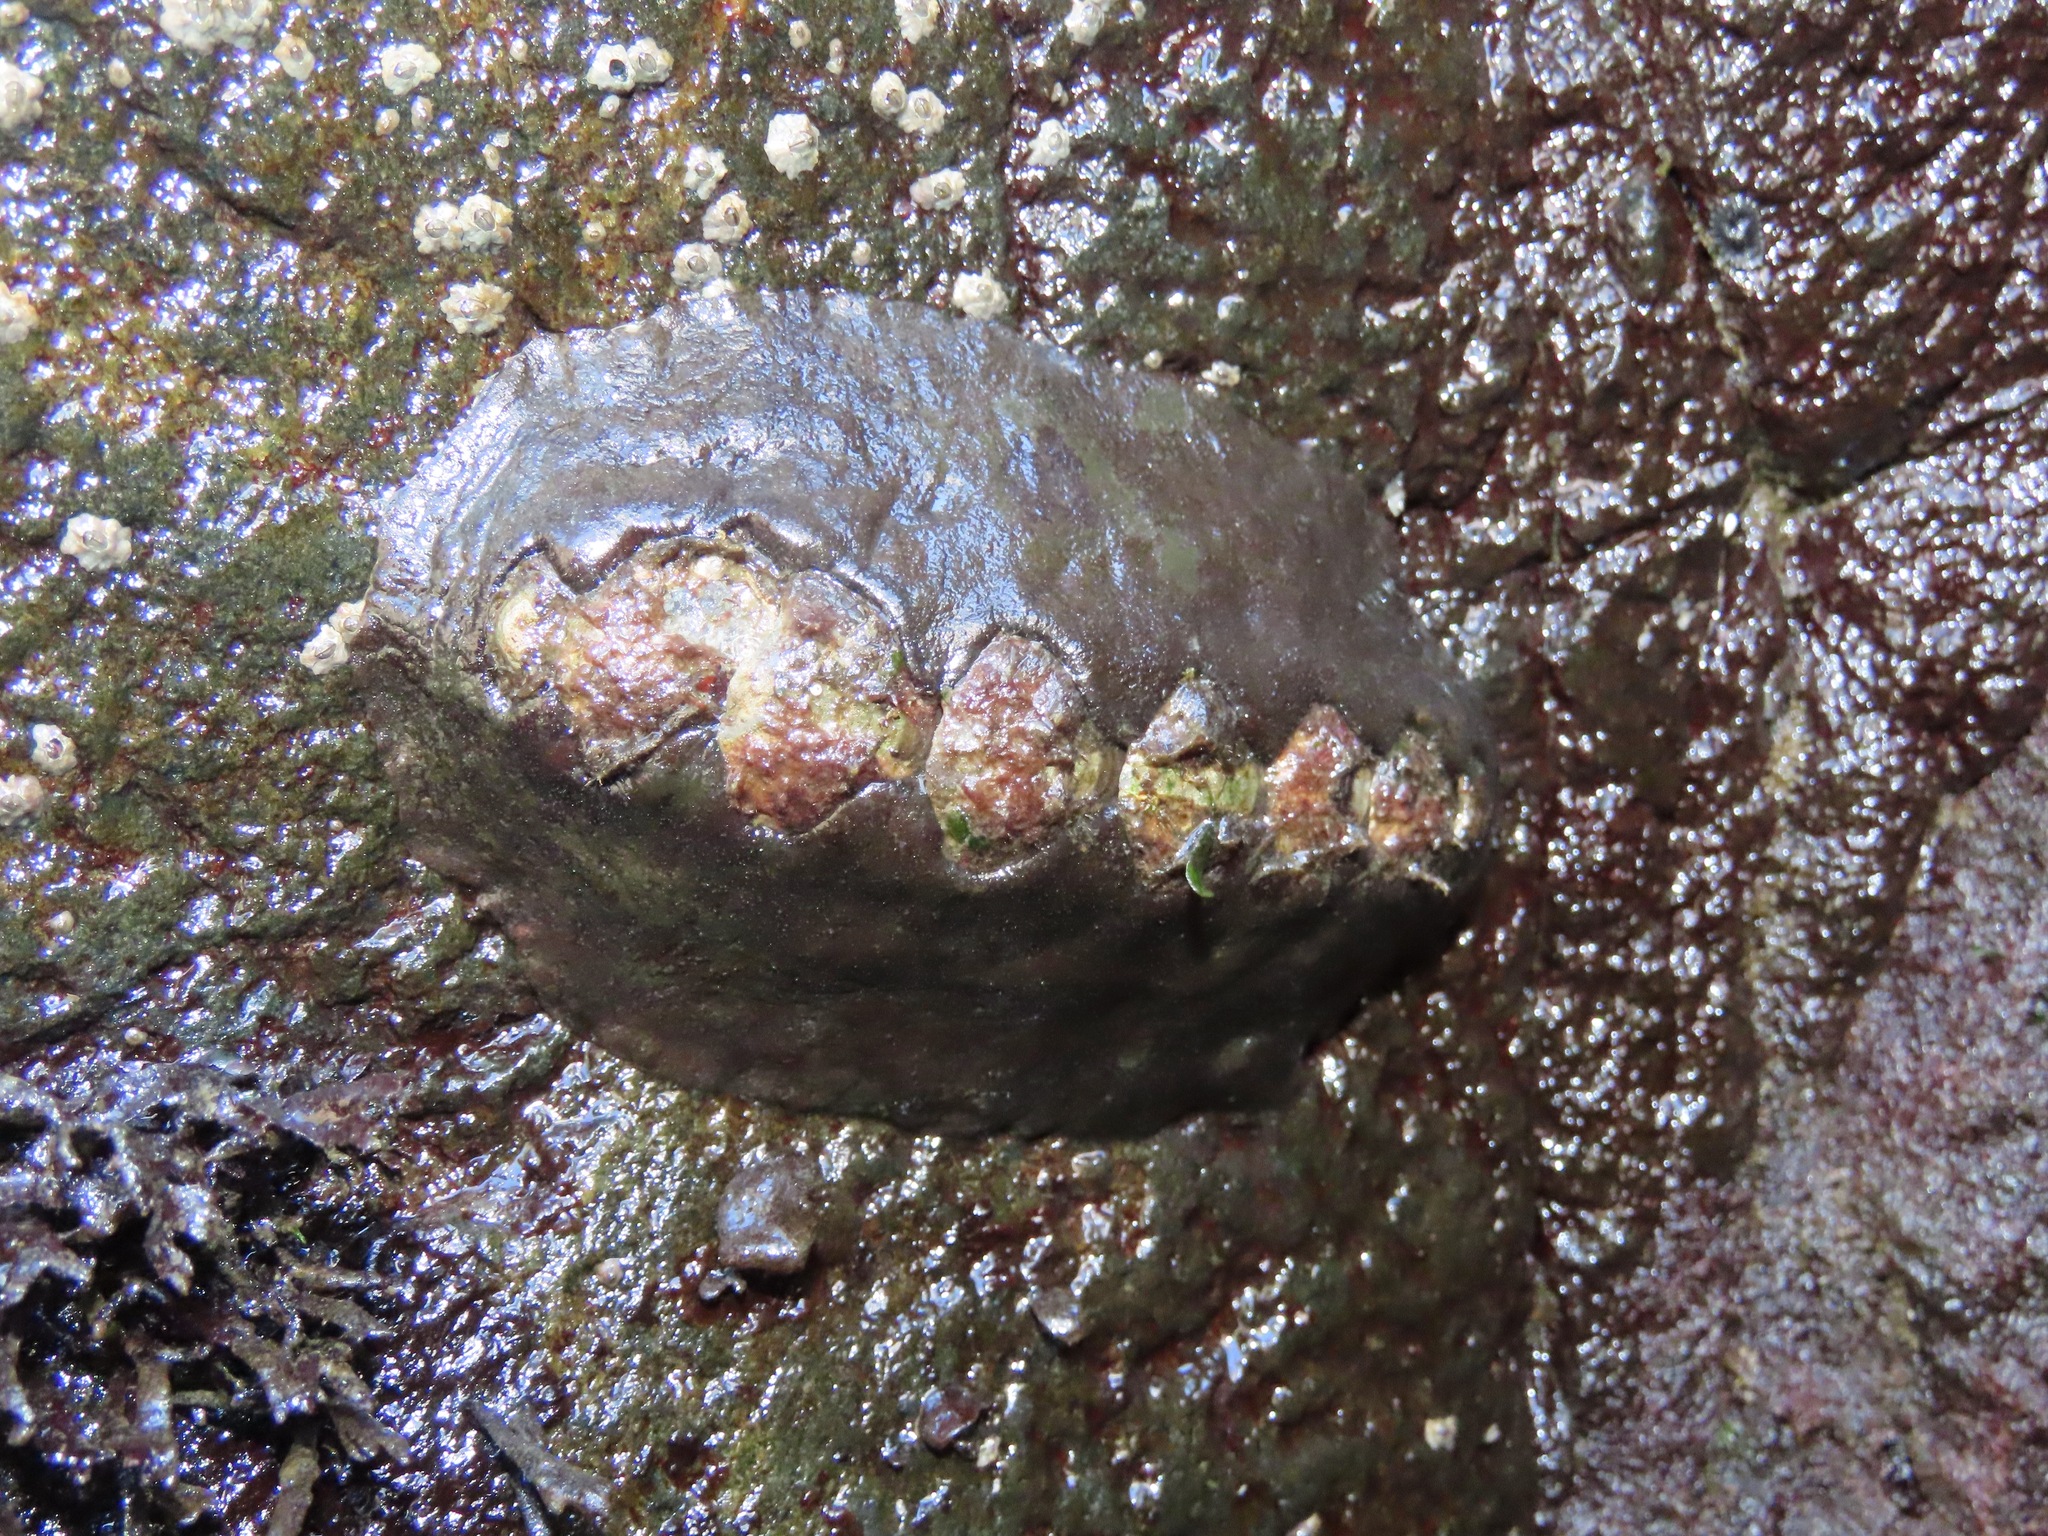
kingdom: Animalia
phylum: Mollusca
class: Polyplacophora
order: Chitonida
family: Mopaliidae
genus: Katharina
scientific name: Katharina tunicata
